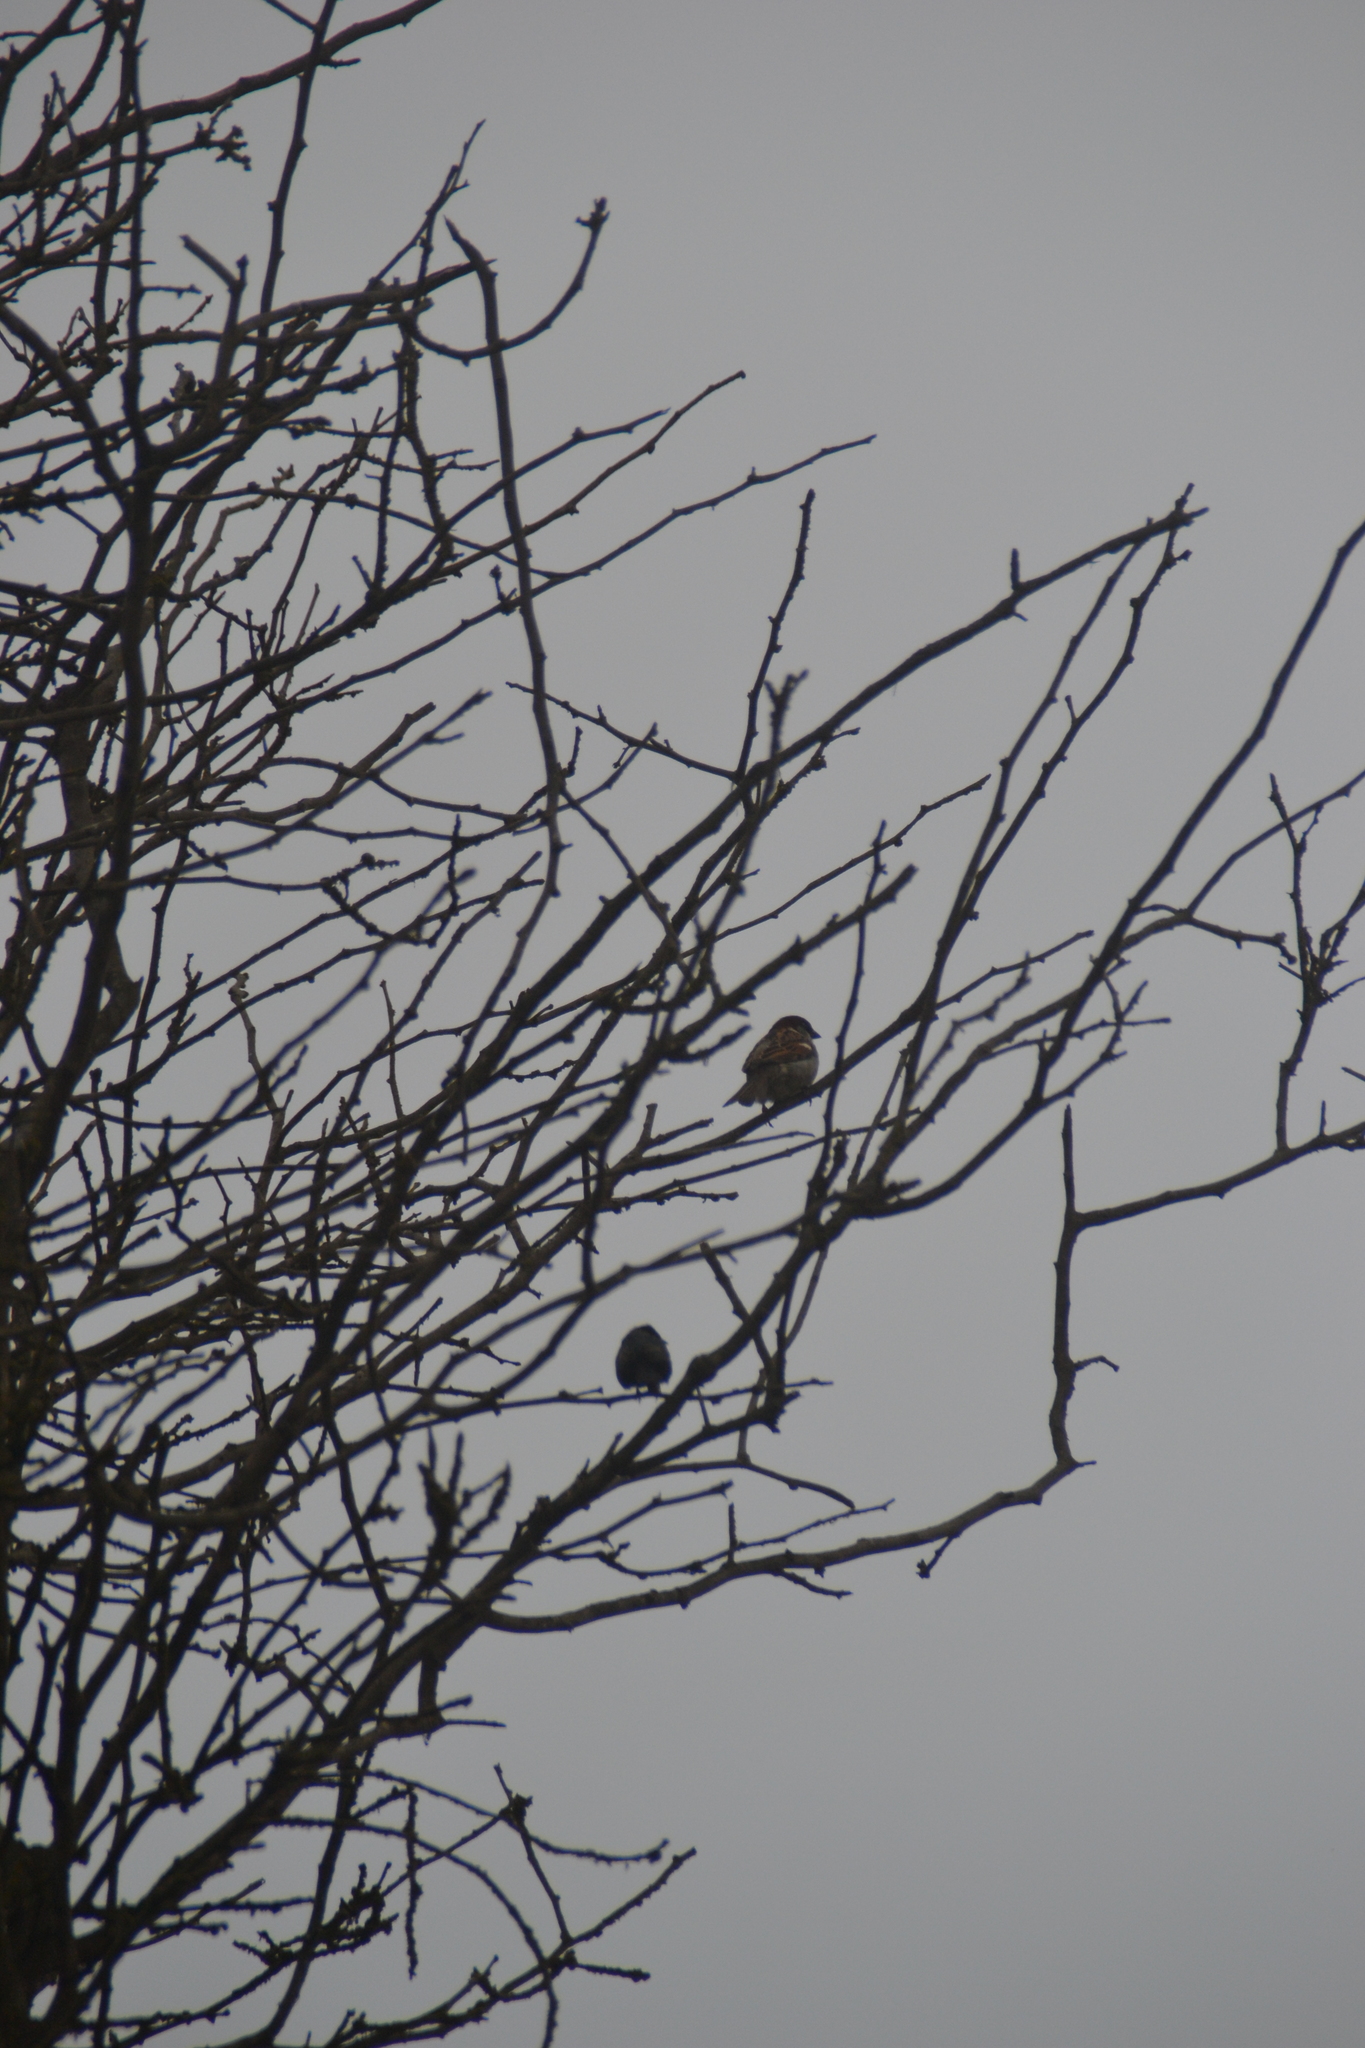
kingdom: Animalia
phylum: Chordata
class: Aves
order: Passeriformes
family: Passeridae
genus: Passer
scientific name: Passer domesticus
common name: House sparrow
